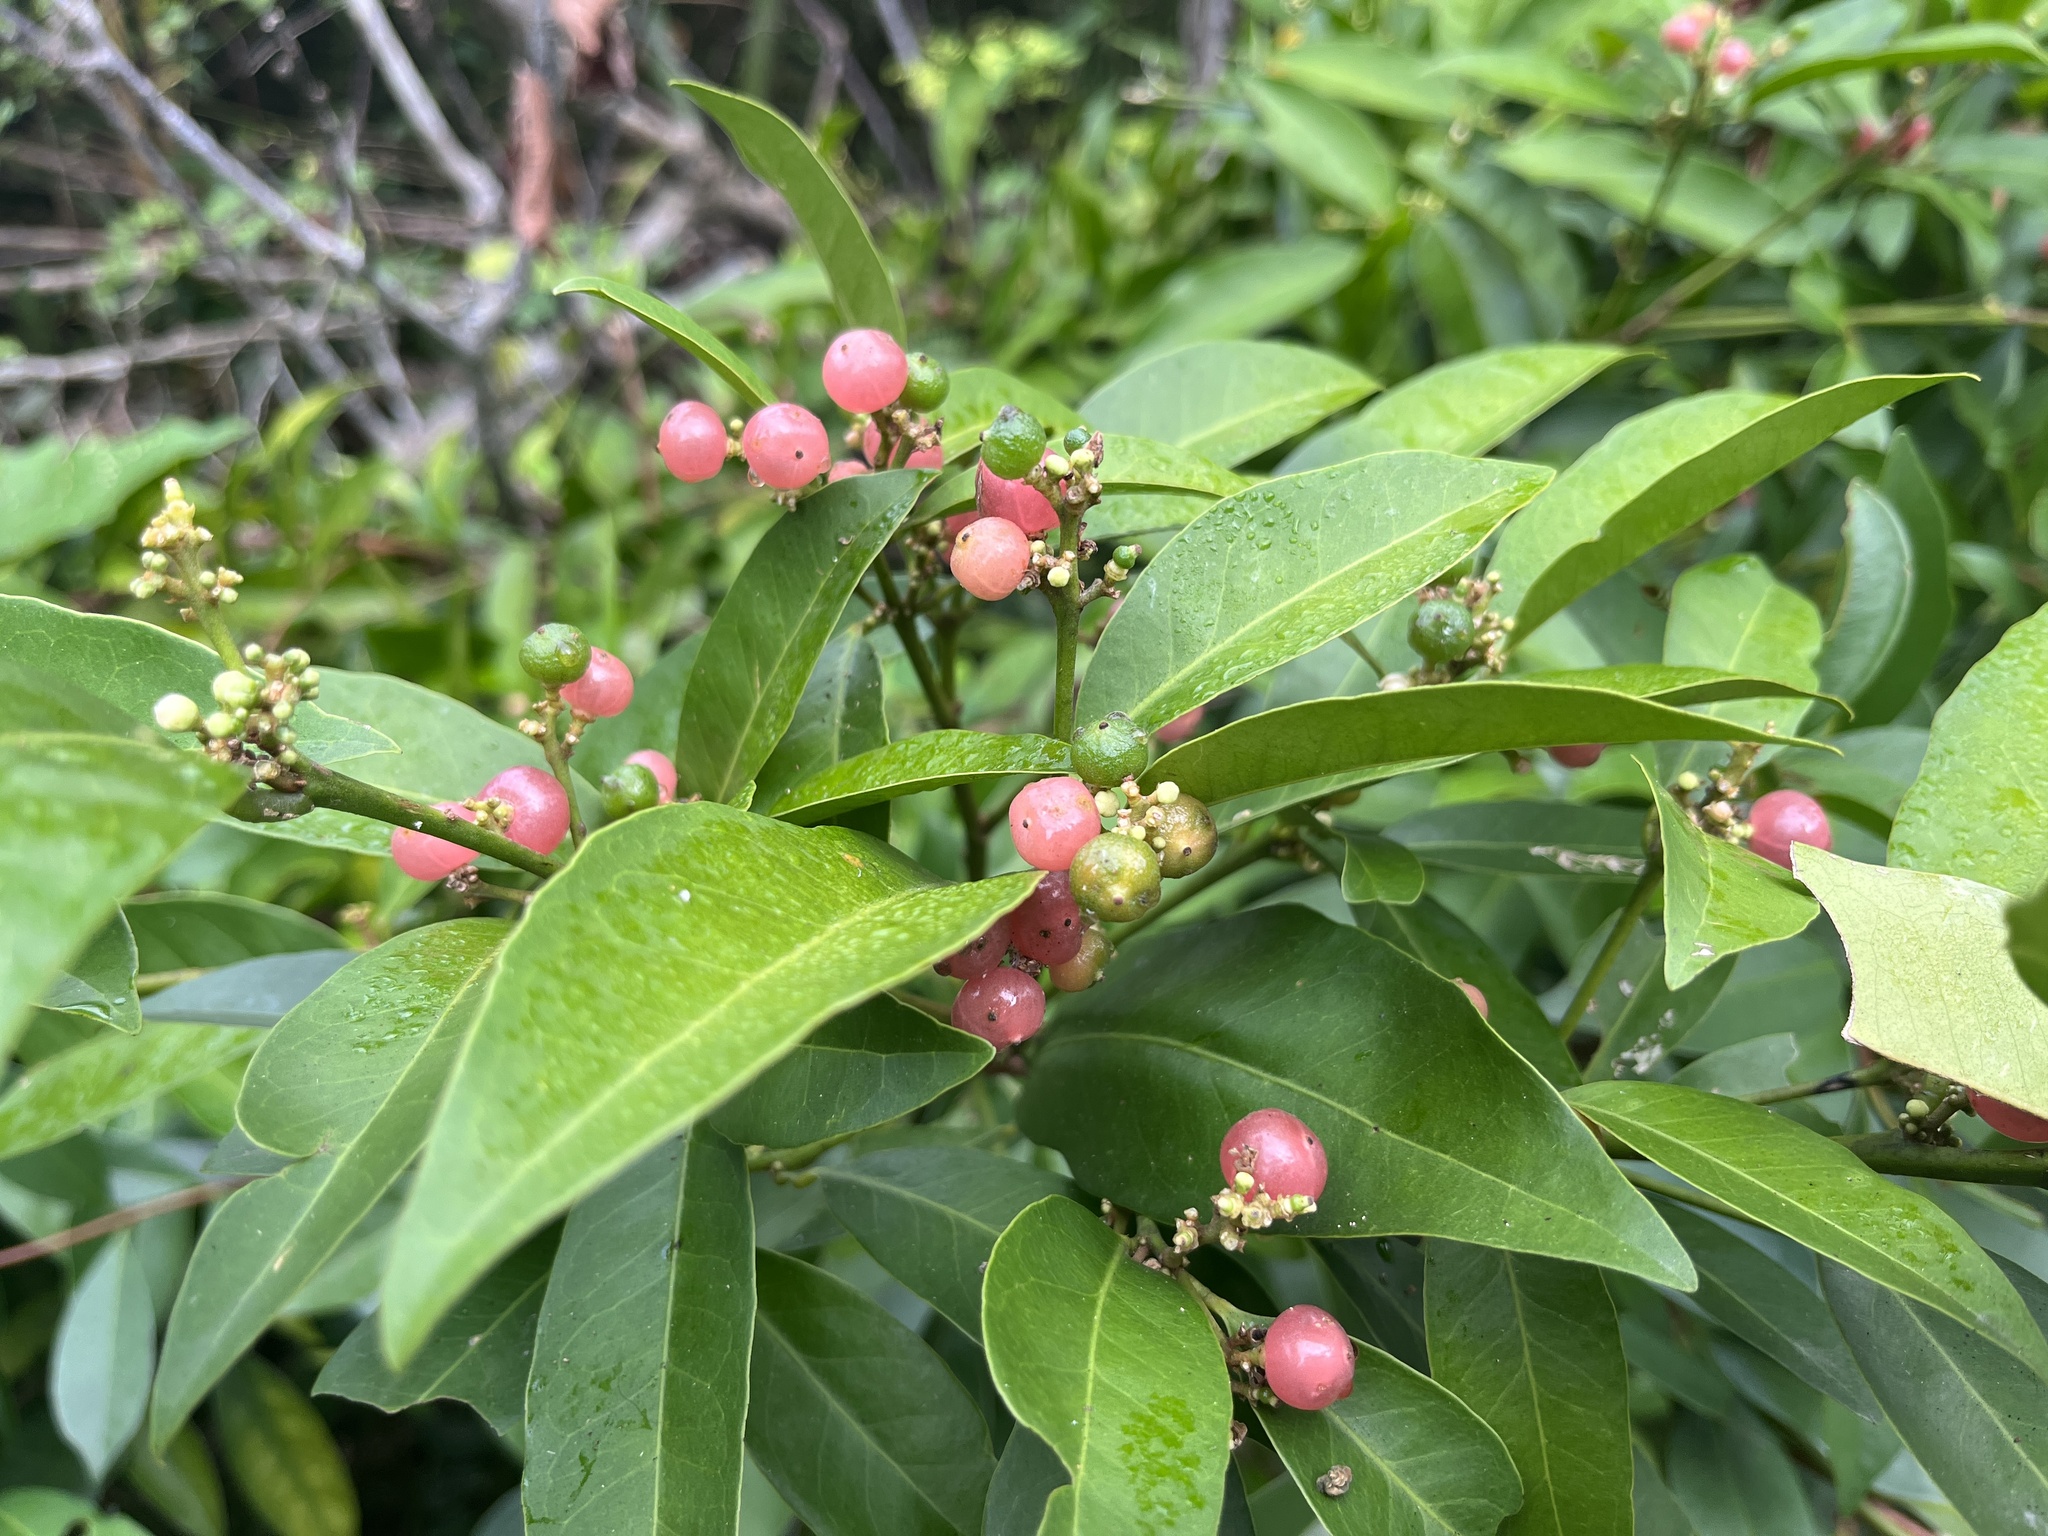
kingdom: Plantae
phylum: Tracheophyta
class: Magnoliopsida
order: Sapindales
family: Rutaceae
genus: Glycosmis
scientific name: Glycosmis parviflora
